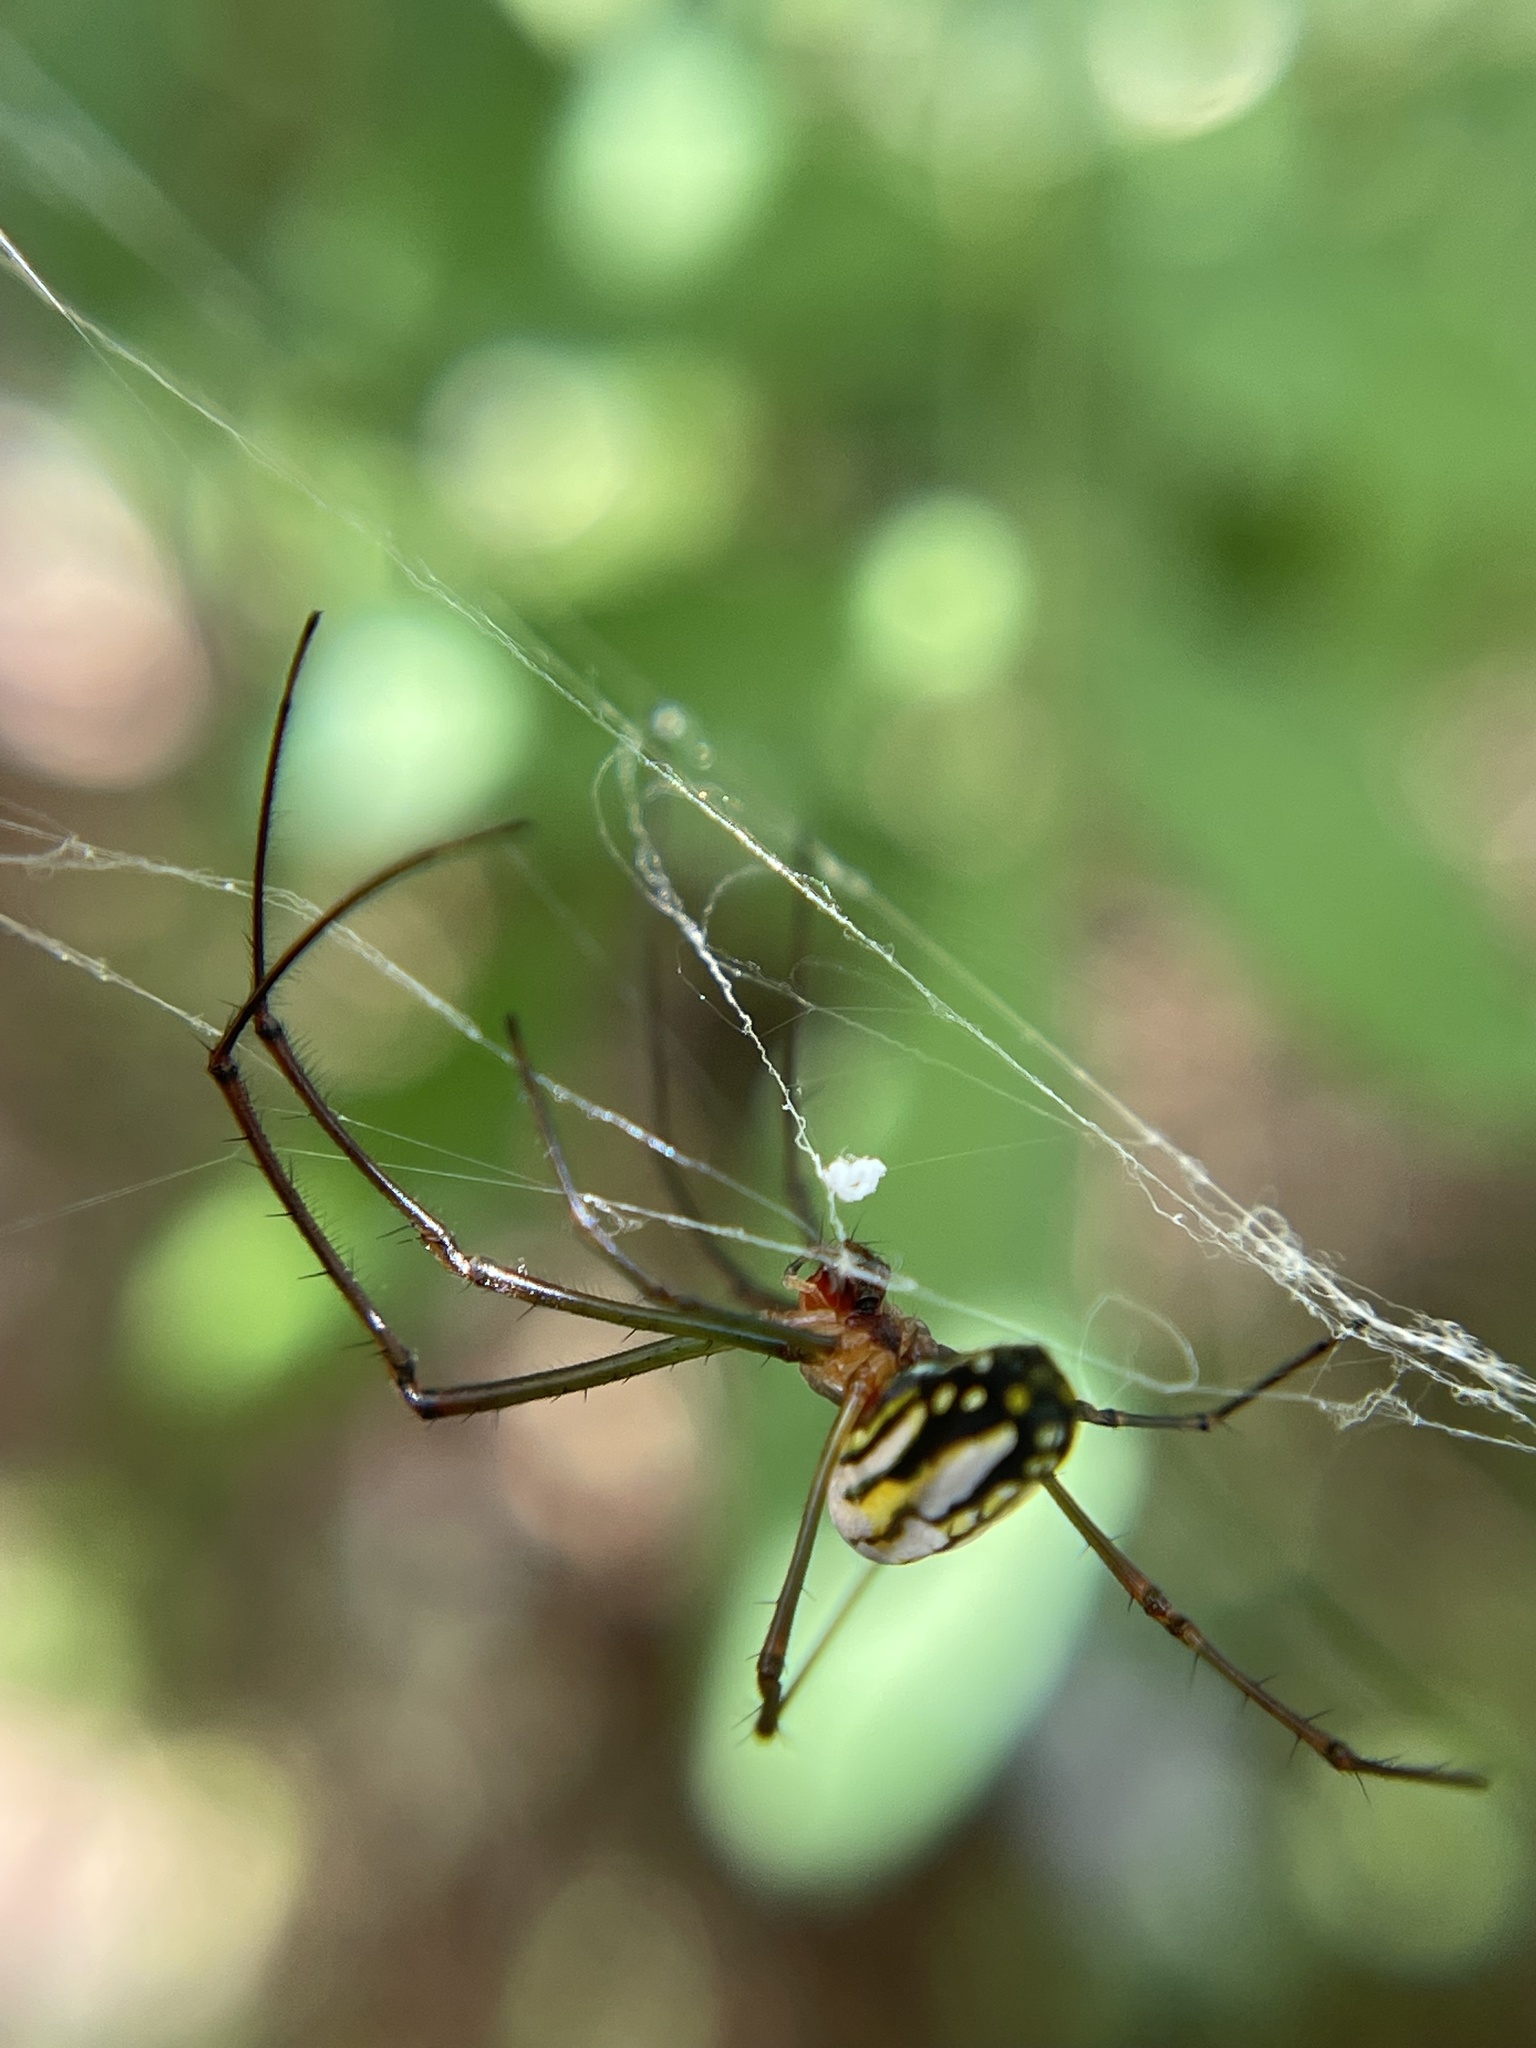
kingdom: Animalia
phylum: Arthropoda
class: Arachnida
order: Araneae
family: Tetragnathidae
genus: Leucauge
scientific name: Leucauge argyra
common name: Longjawed orb weavers
